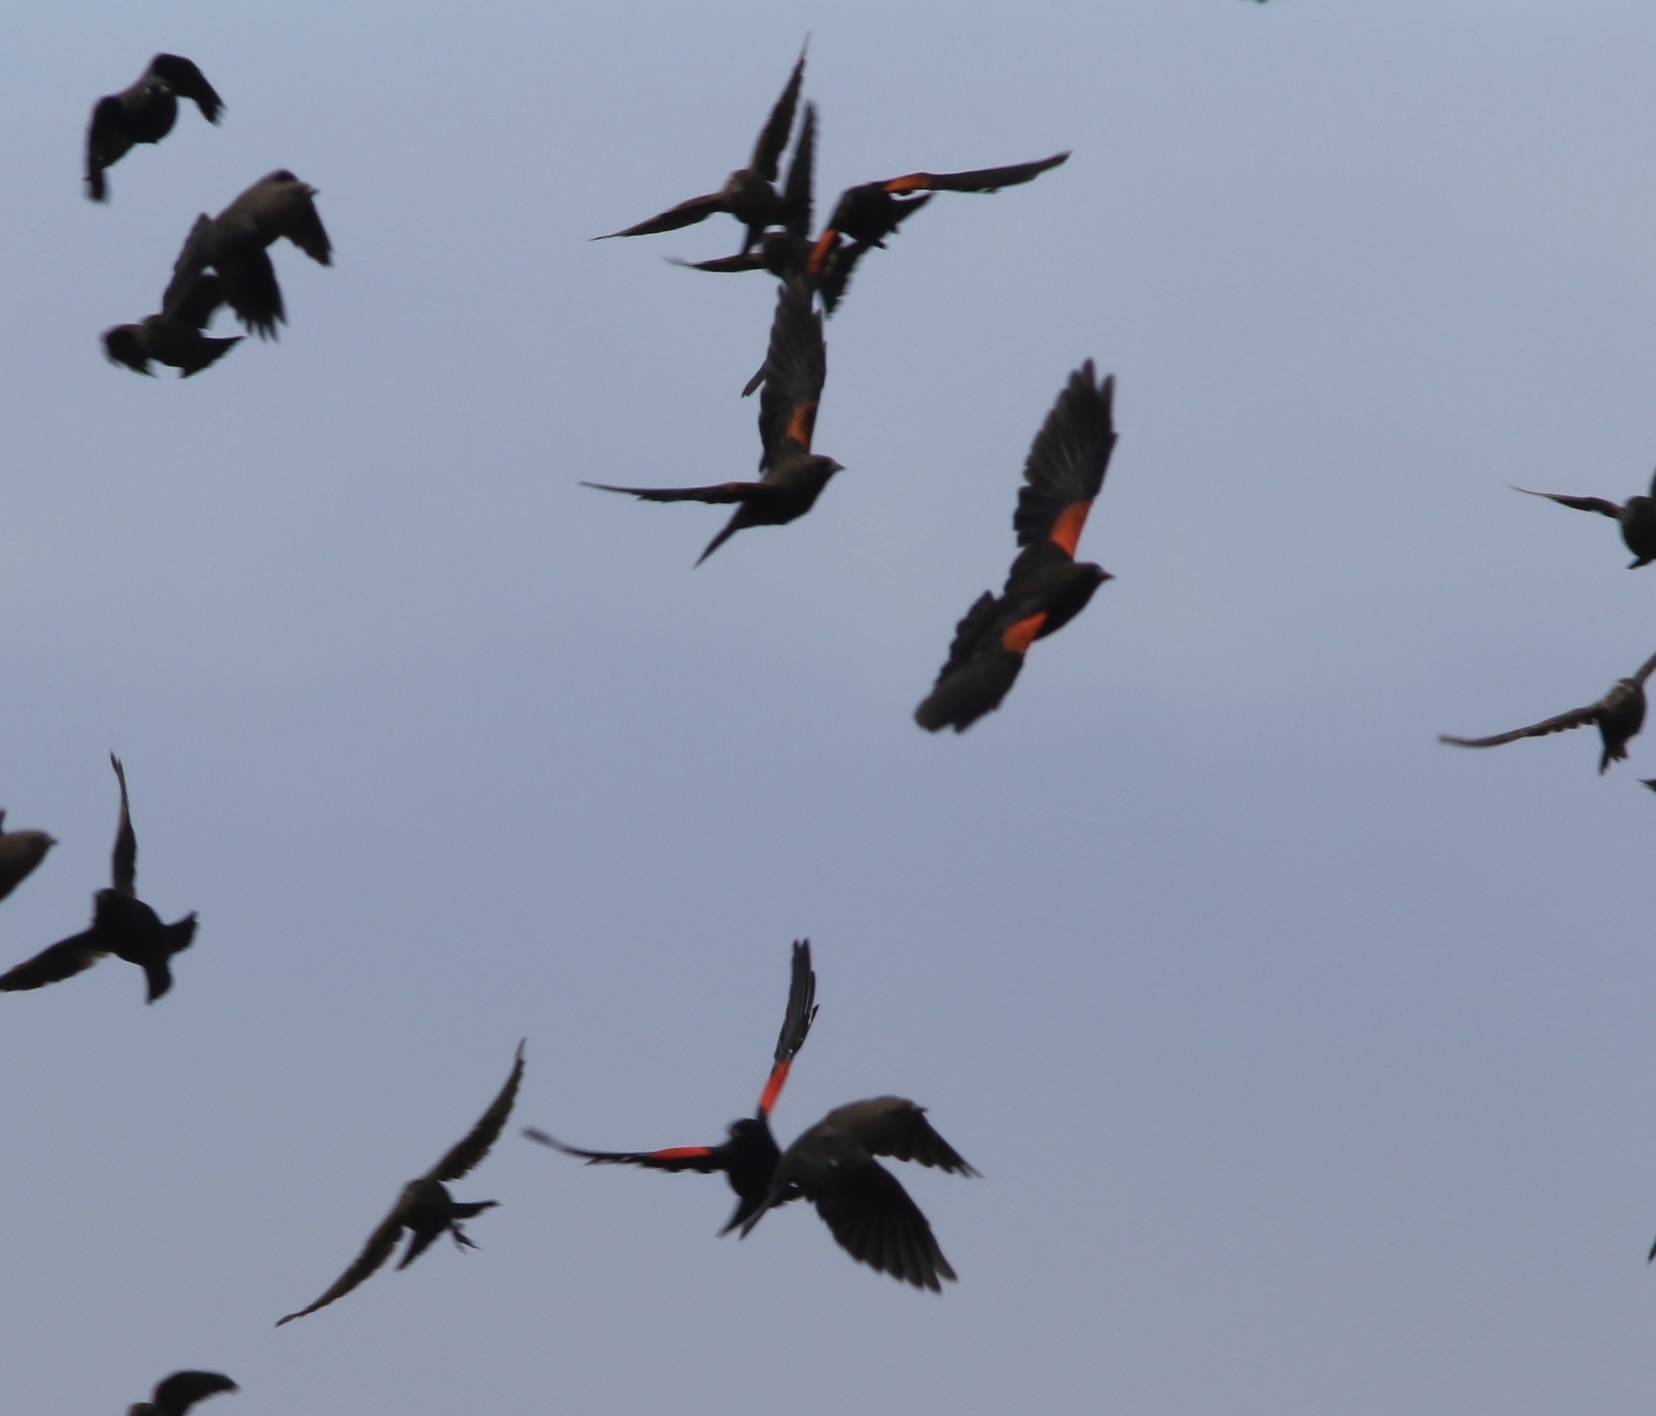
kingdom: Animalia
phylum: Chordata
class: Aves
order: Passeriformes
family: Icteridae
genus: Agelaius
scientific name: Agelaius phoeniceus
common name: Red-winged blackbird
